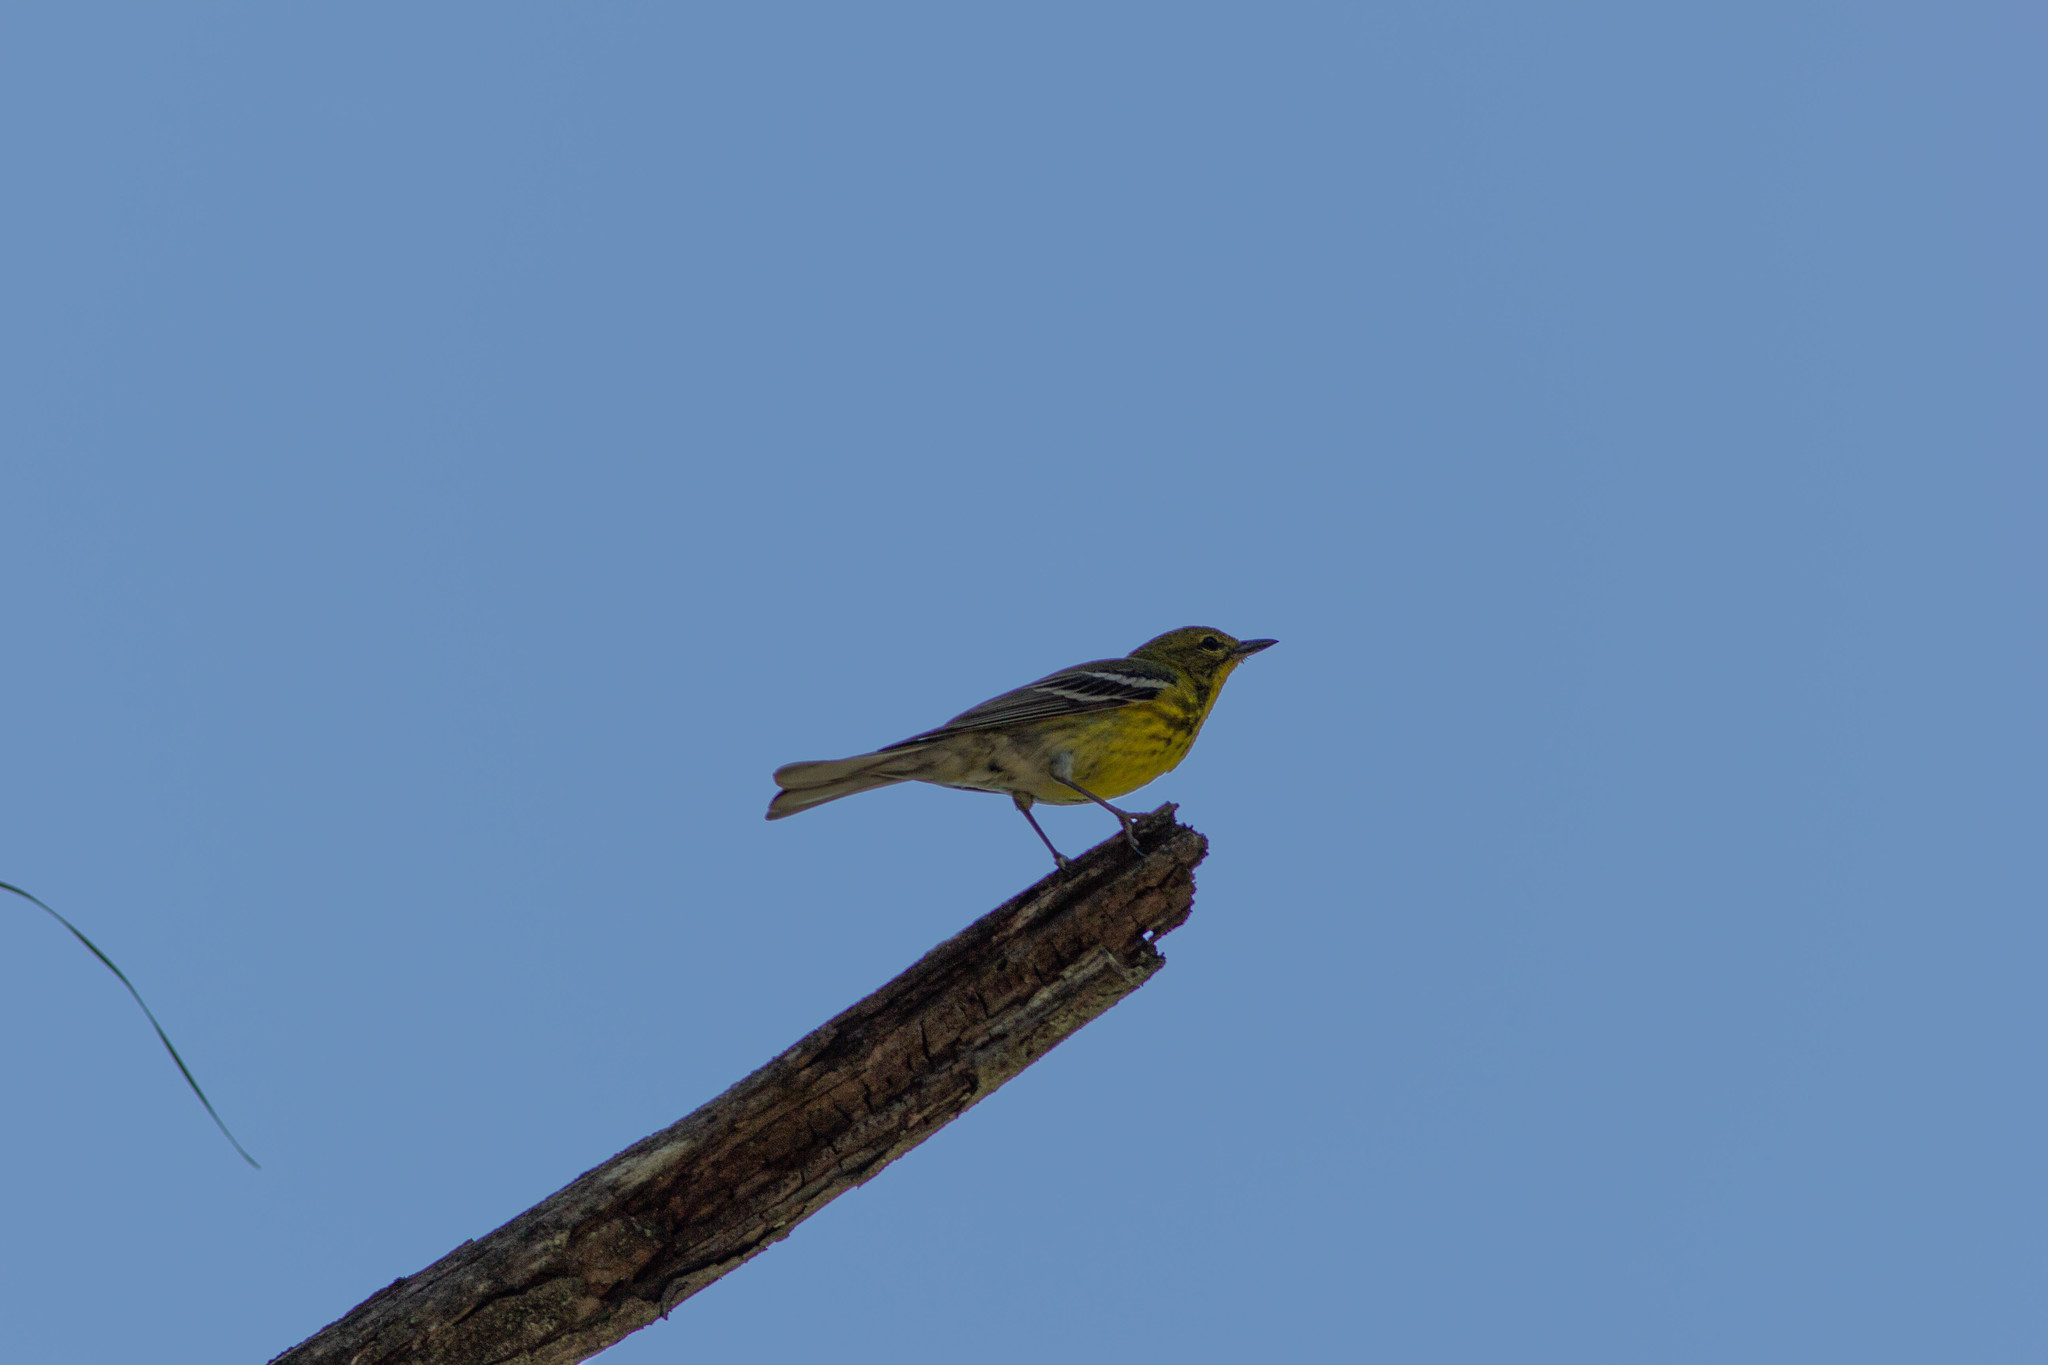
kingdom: Animalia
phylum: Chordata
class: Aves
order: Passeriformes
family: Parulidae
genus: Setophaga
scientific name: Setophaga pinus
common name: Pine warbler
